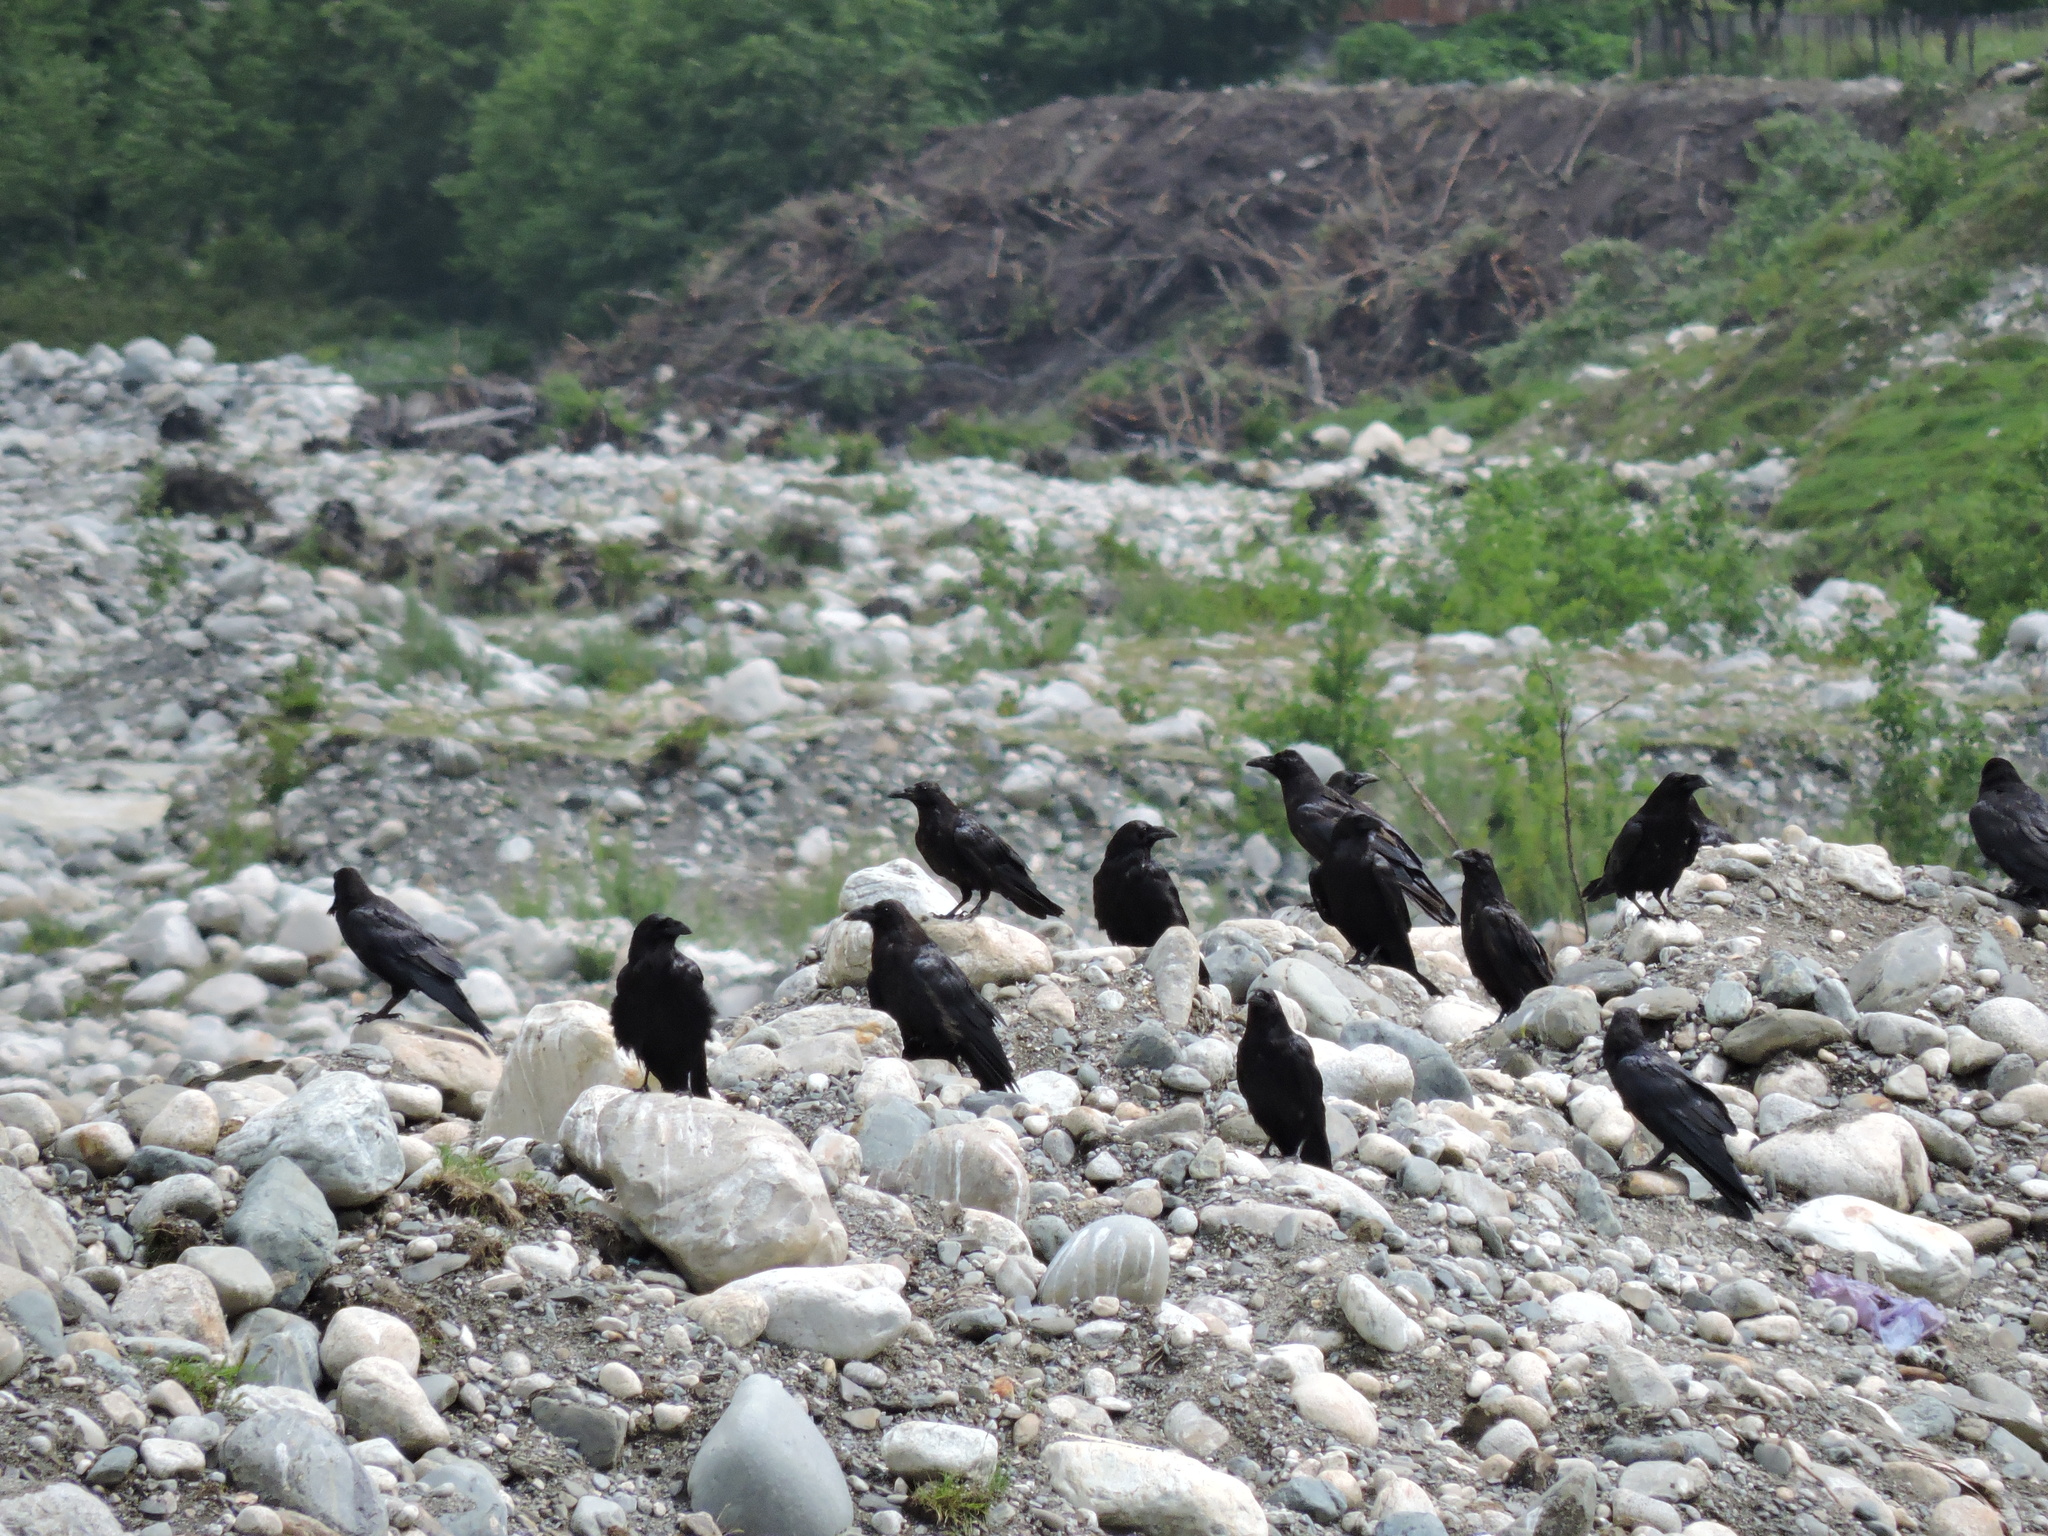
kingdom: Animalia
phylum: Chordata
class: Aves
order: Passeriformes
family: Corvidae
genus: Corvus
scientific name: Corvus corax
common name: Common raven
